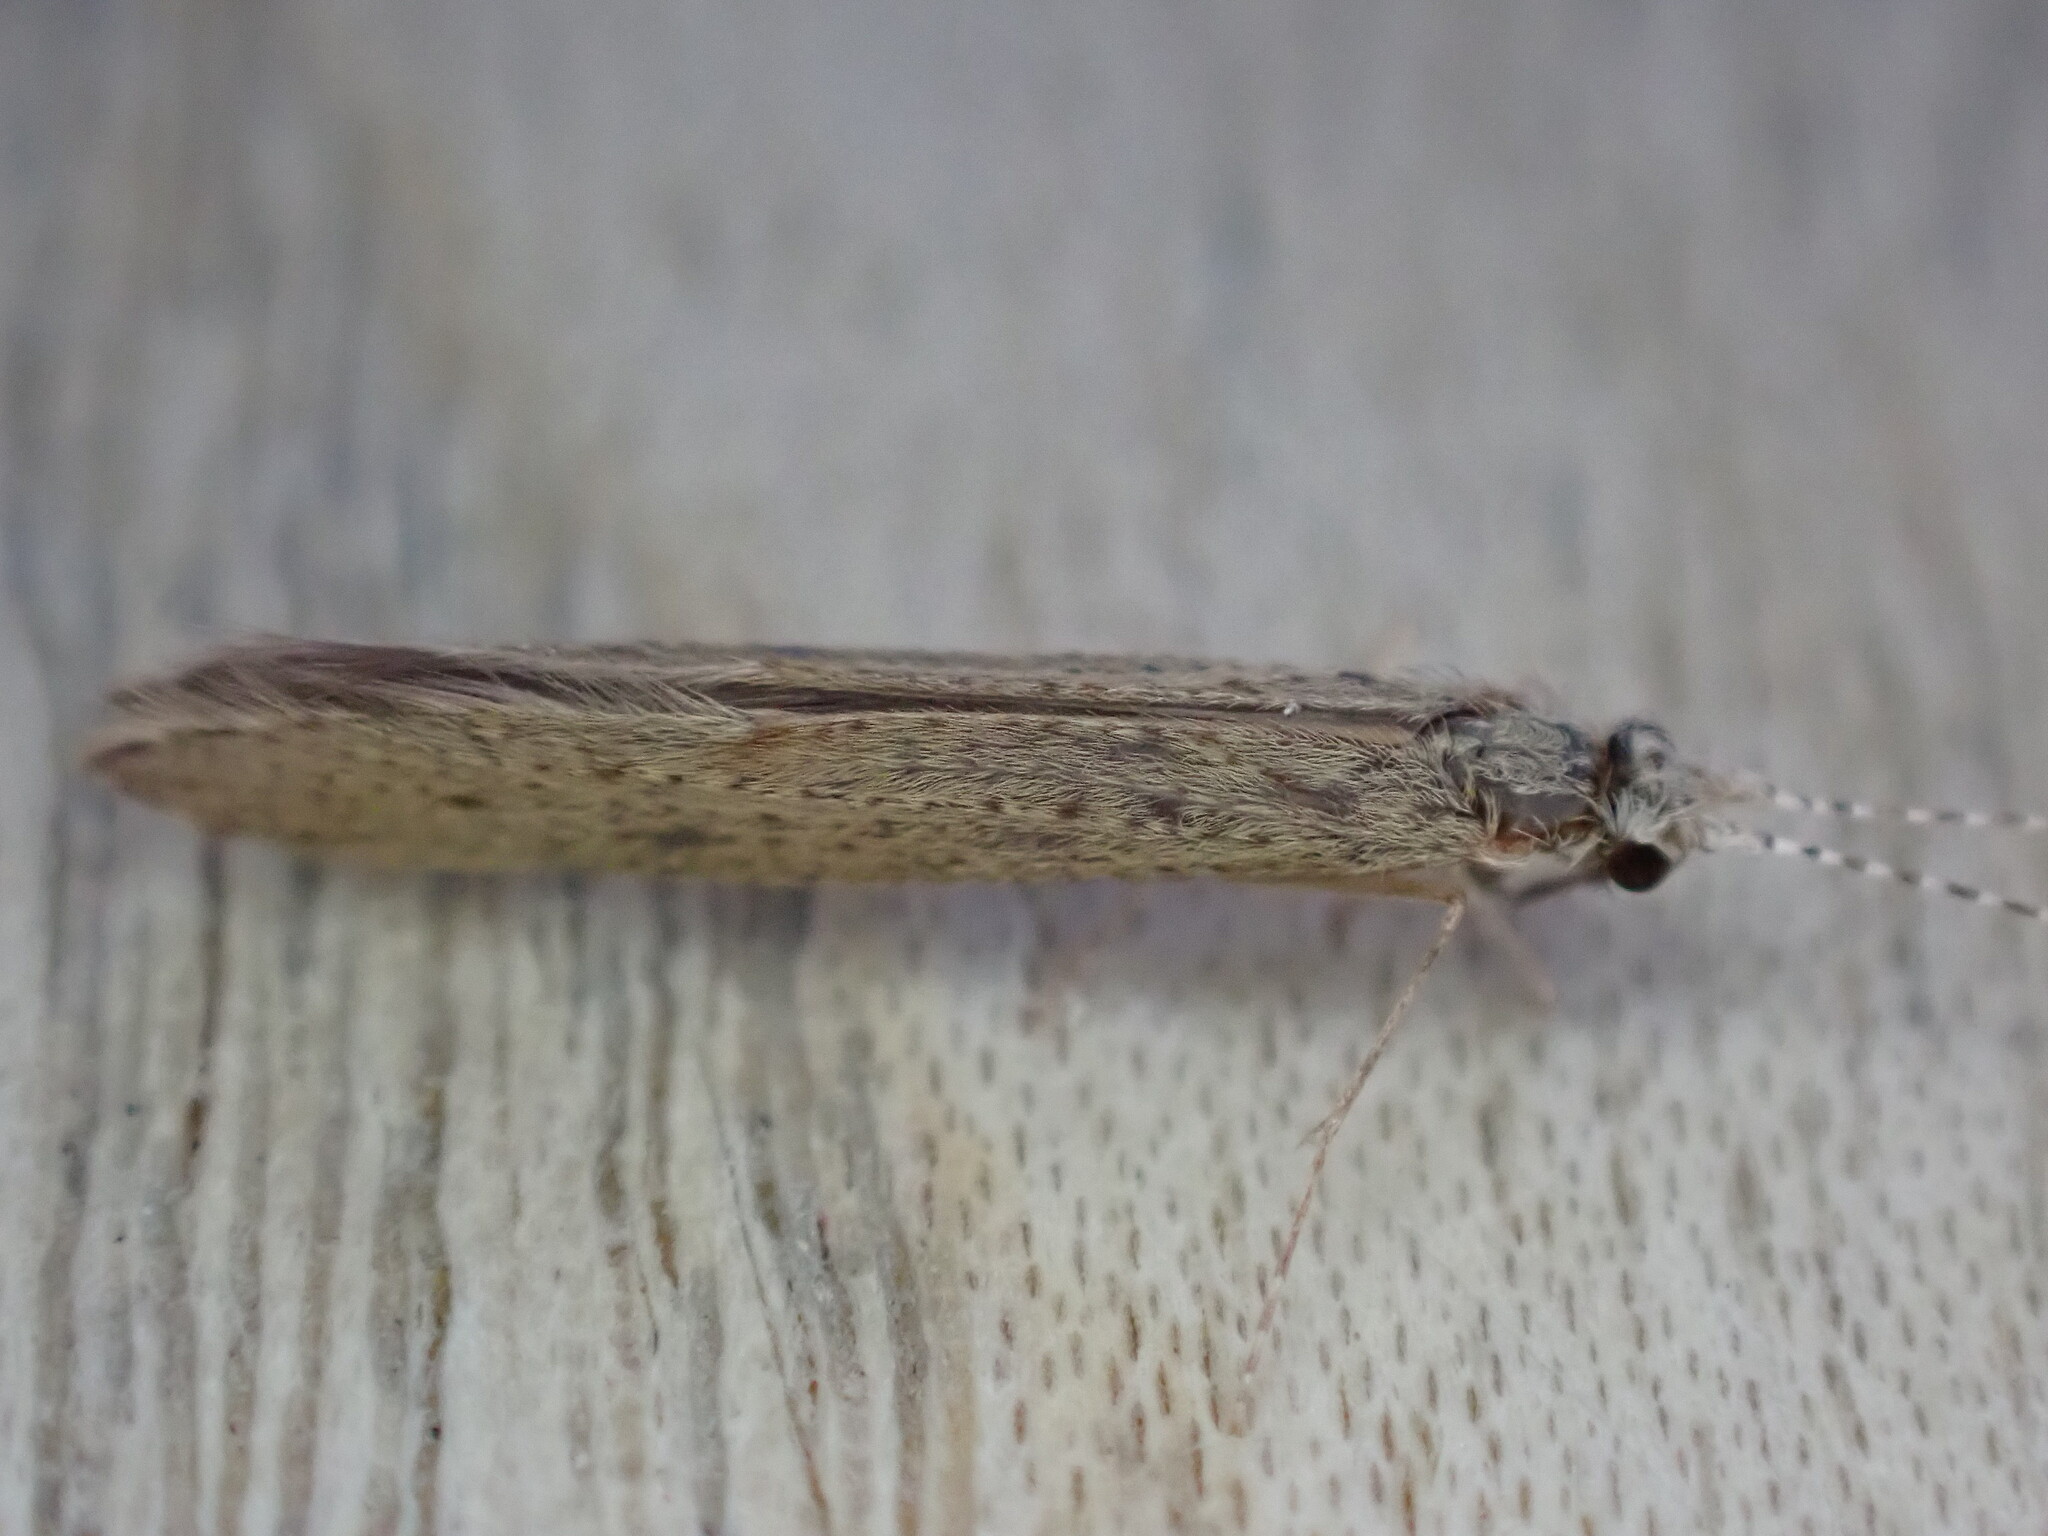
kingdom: Animalia
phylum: Arthropoda
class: Insecta
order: Trichoptera
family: Leptoceridae
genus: Leptocerus
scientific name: Leptocerus tineiformis
